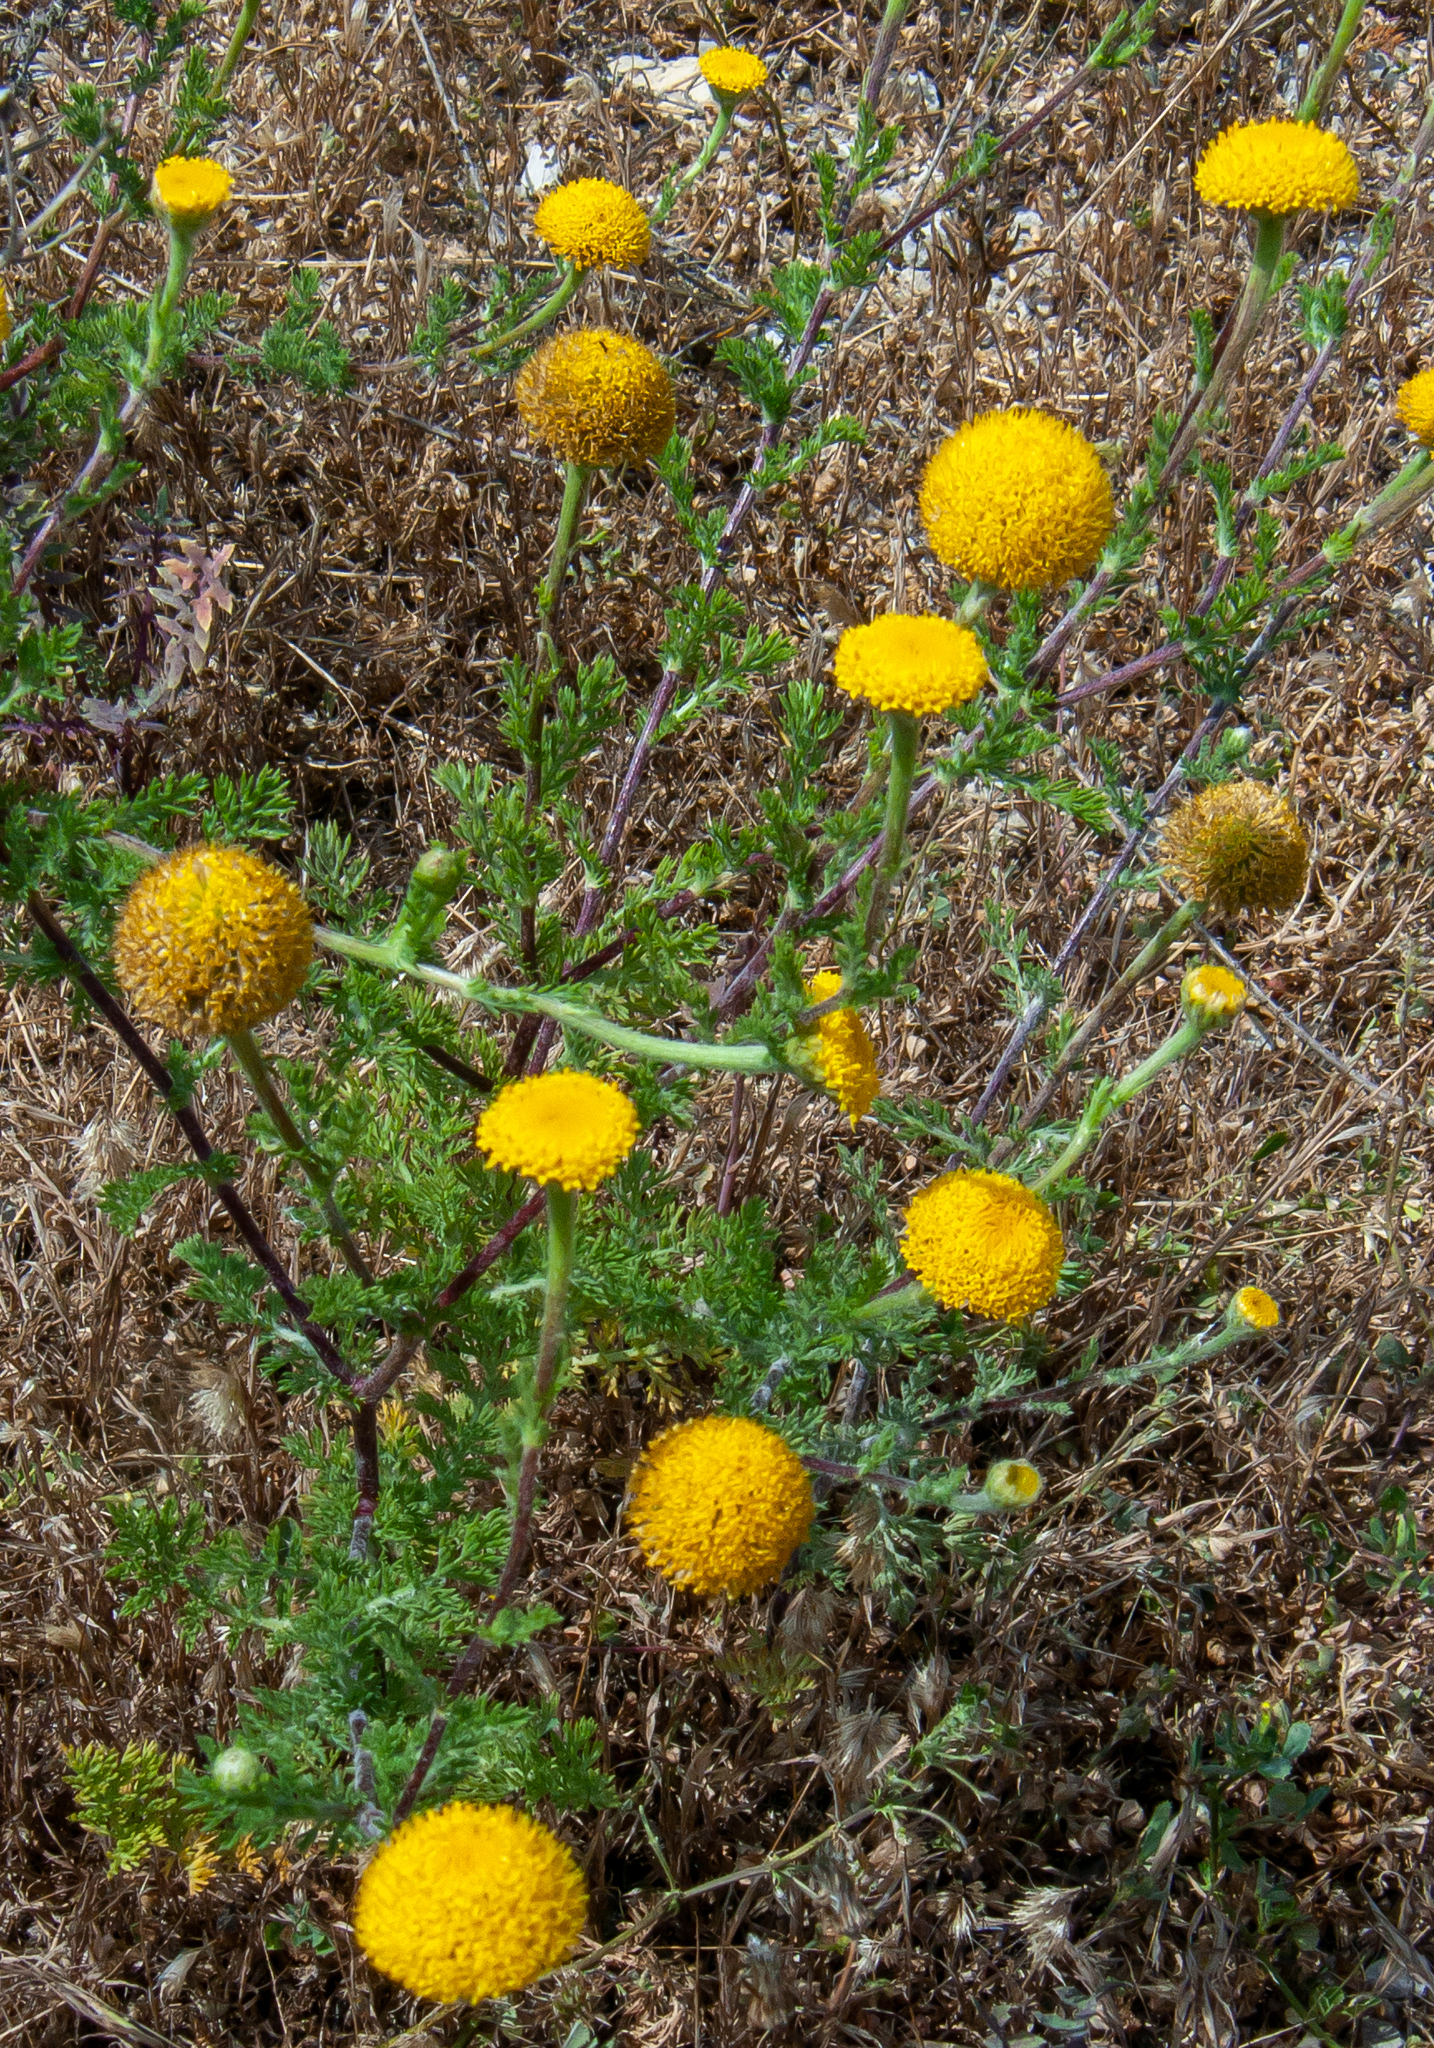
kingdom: Plantae
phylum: Tracheophyta
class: Magnoliopsida
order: Asterales
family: Asteraceae
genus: Santolina
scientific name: Santolina chamaecyparissus
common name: Lavender-cotton
